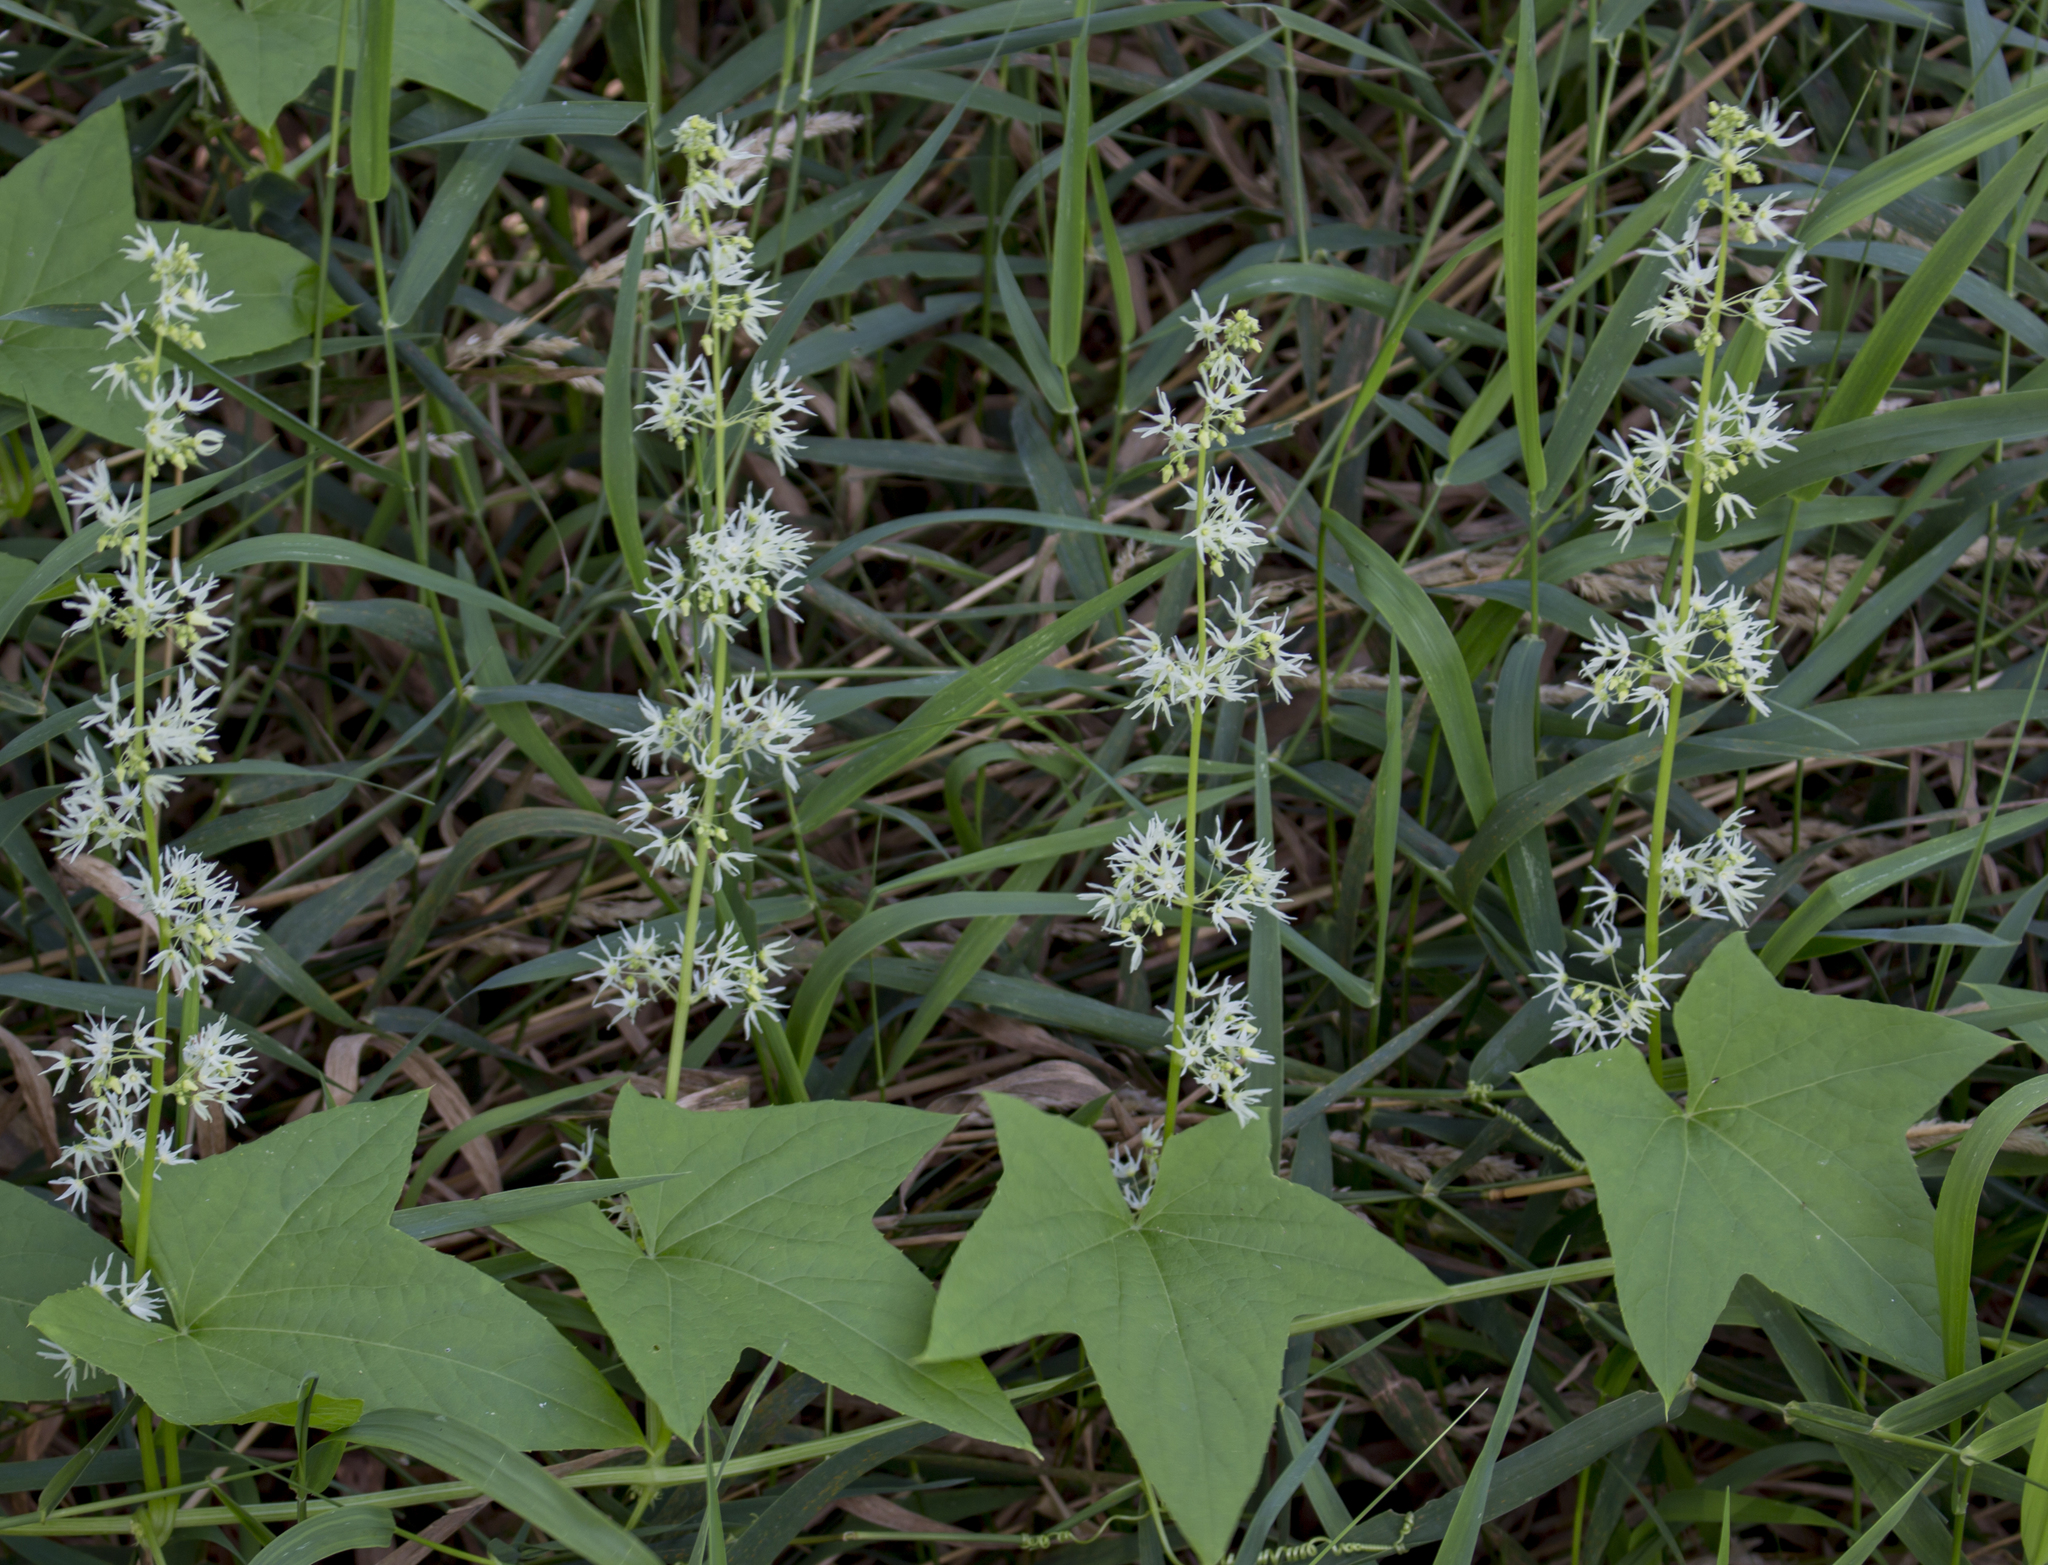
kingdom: Plantae
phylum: Tracheophyta
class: Magnoliopsida
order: Cucurbitales
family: Cucurbitaceae
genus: Echinocystis
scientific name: Echinocystis lobata
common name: Wild cucumber
